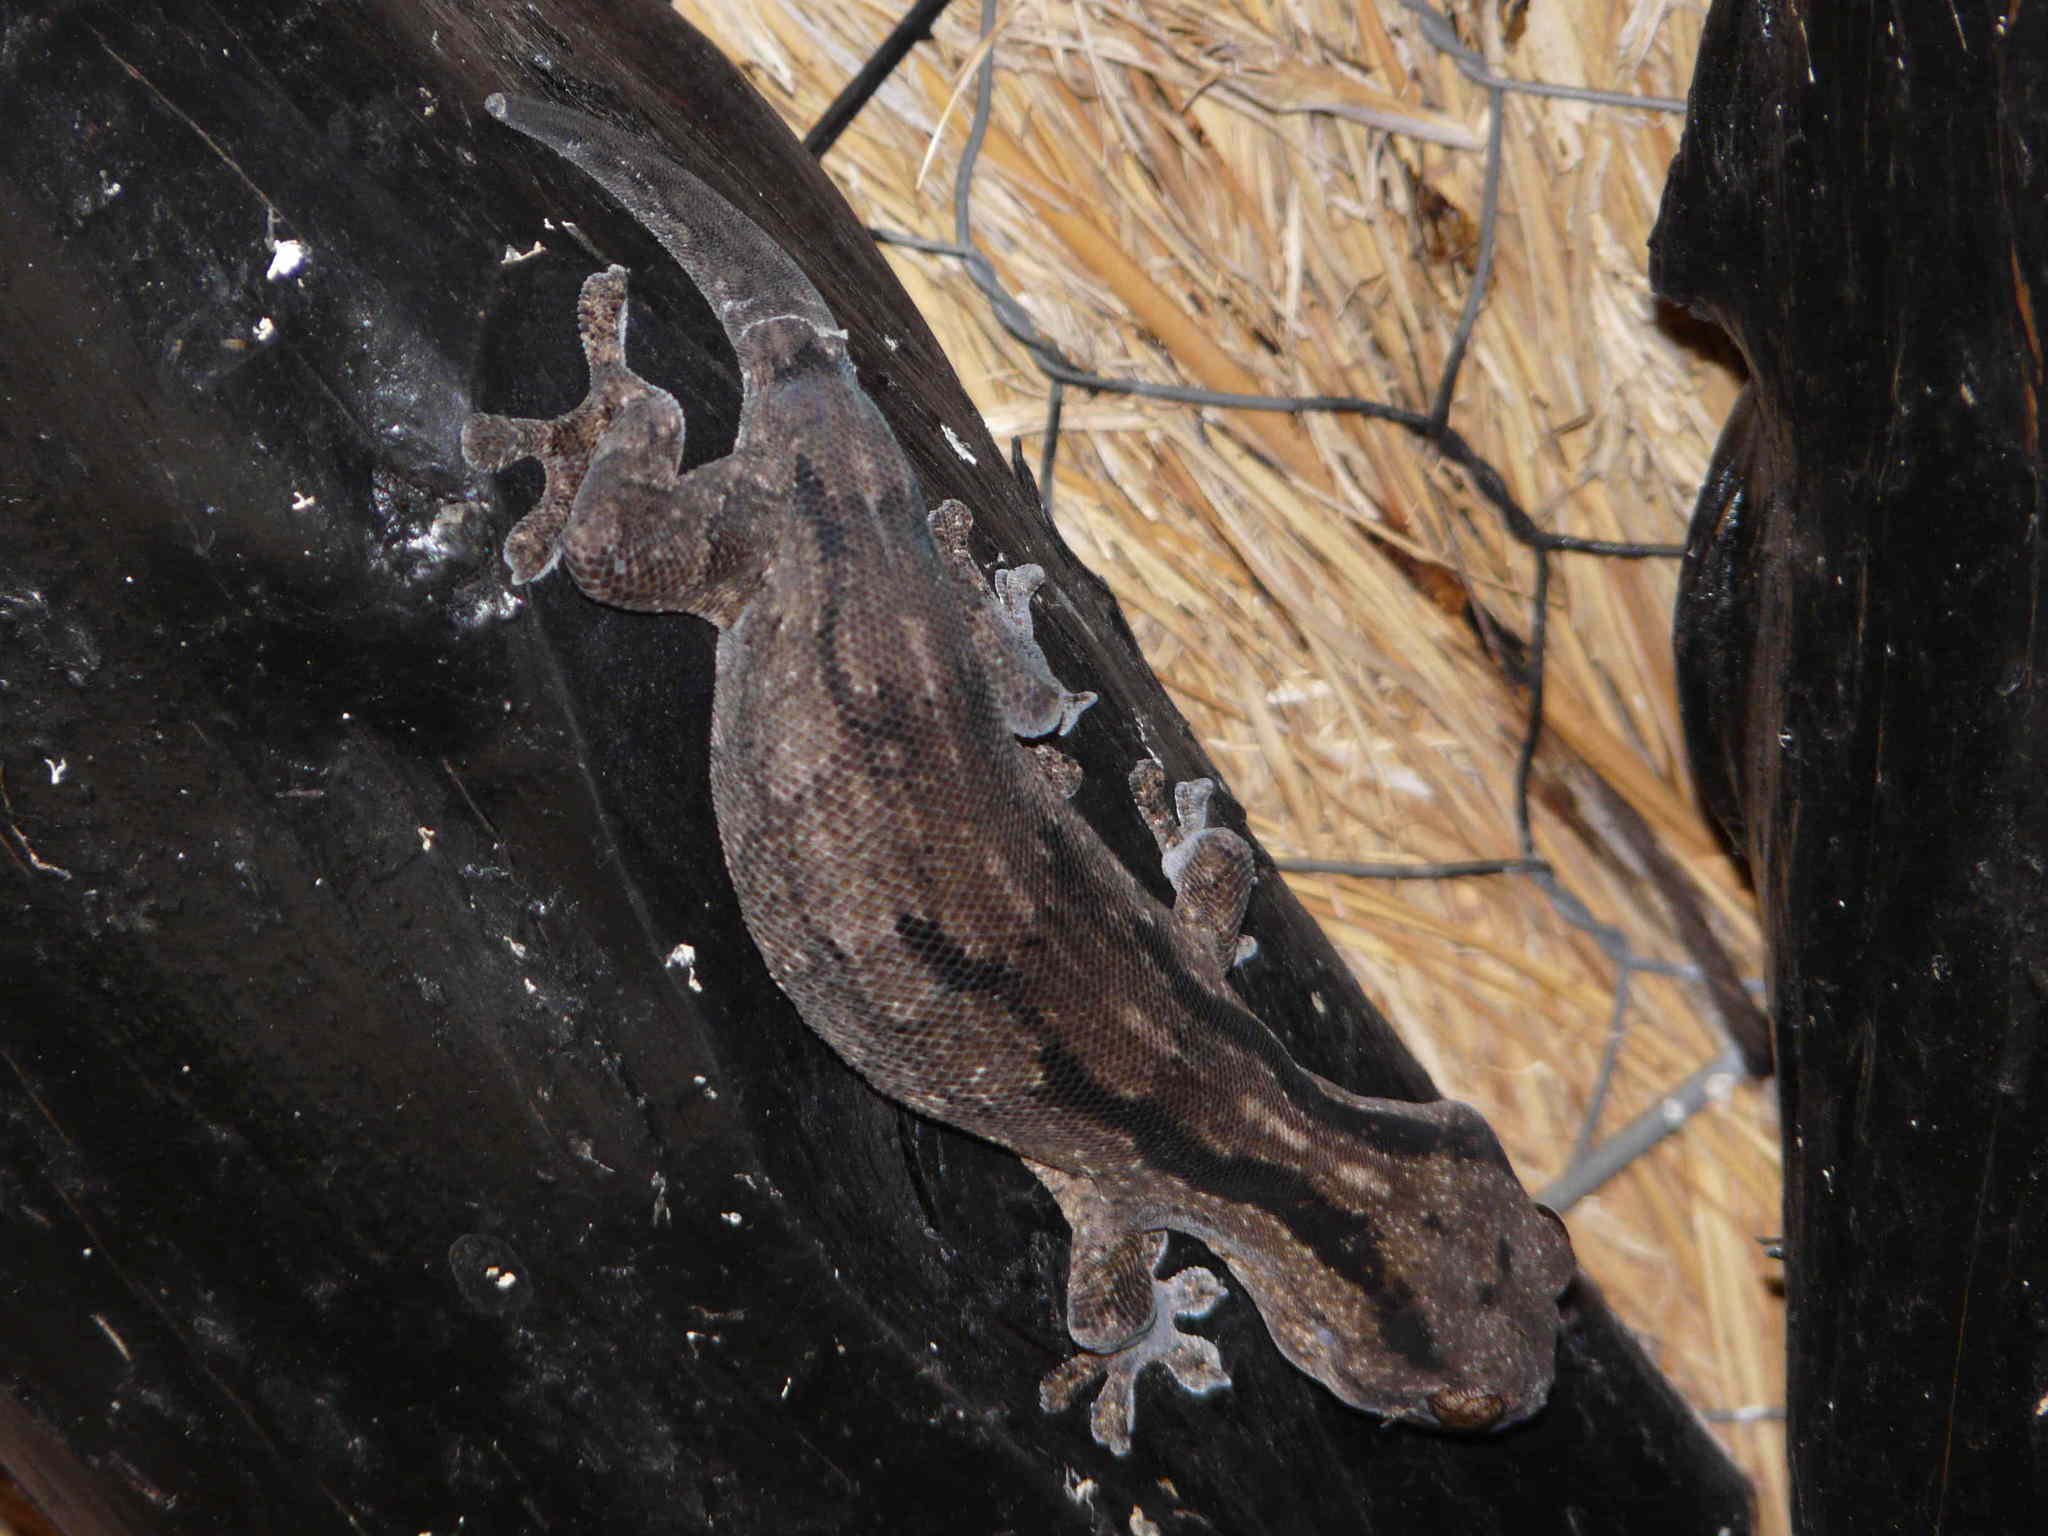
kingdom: Animalia
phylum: Chordata
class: Squamata
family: Gekkonidae
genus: Homopholis
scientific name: Homopholis arnoldi
